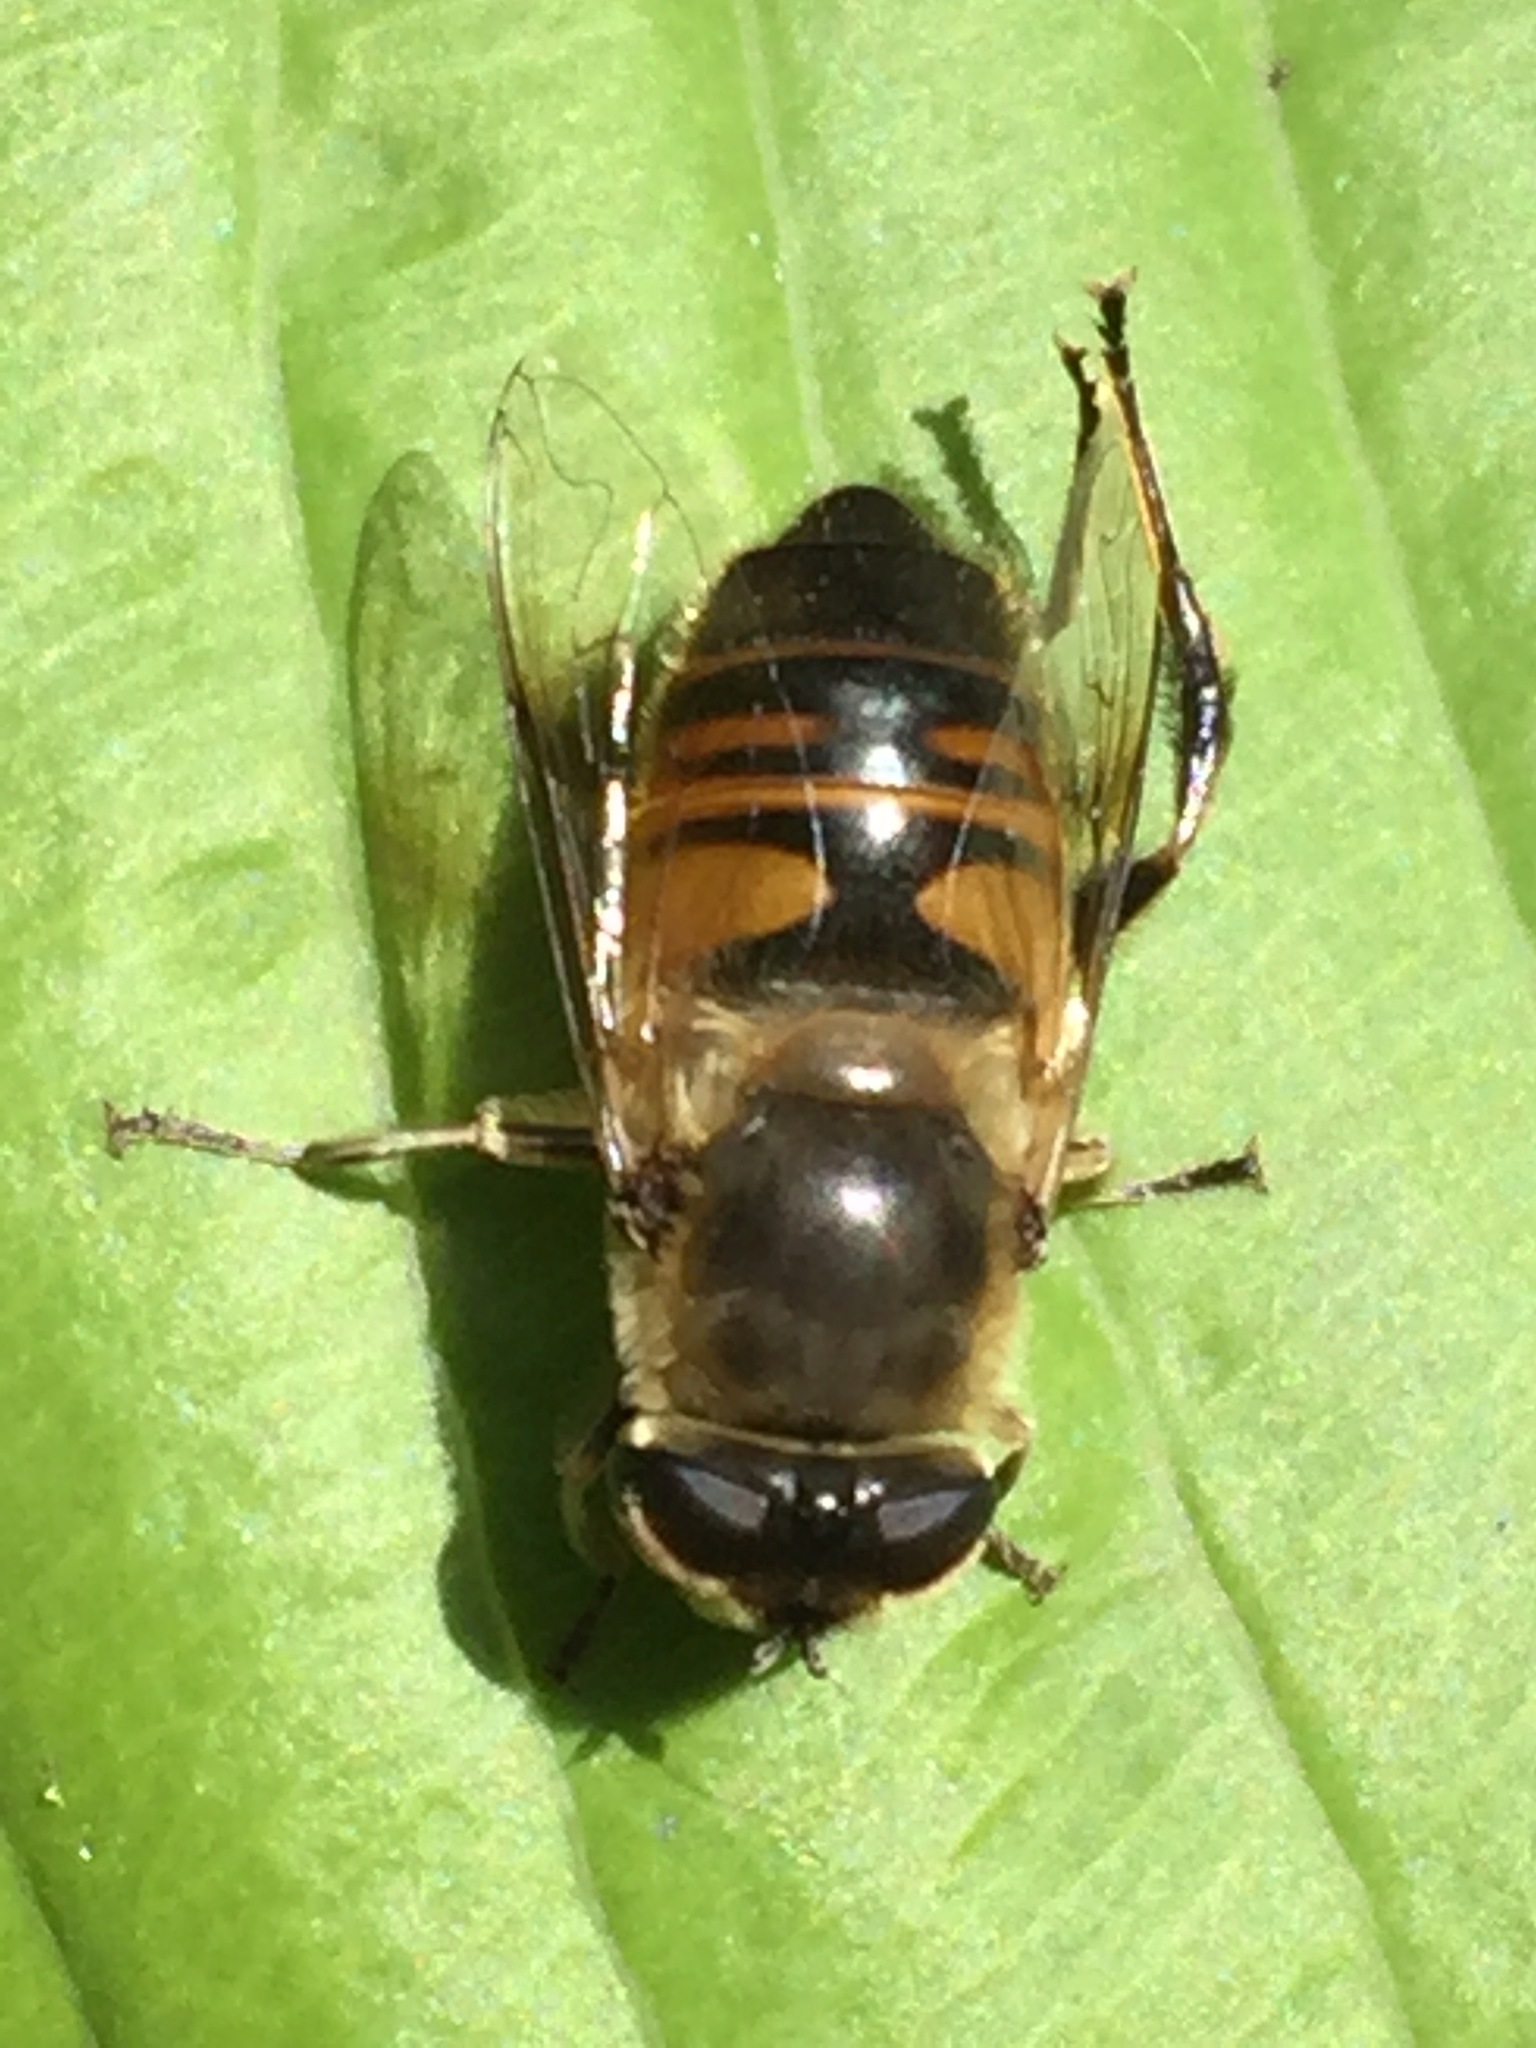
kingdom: Animalia
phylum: Arthropoda
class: Insecta
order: Diptera
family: Syrphidae
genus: Eristalis
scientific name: Eristalis tenax
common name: Drone fly
